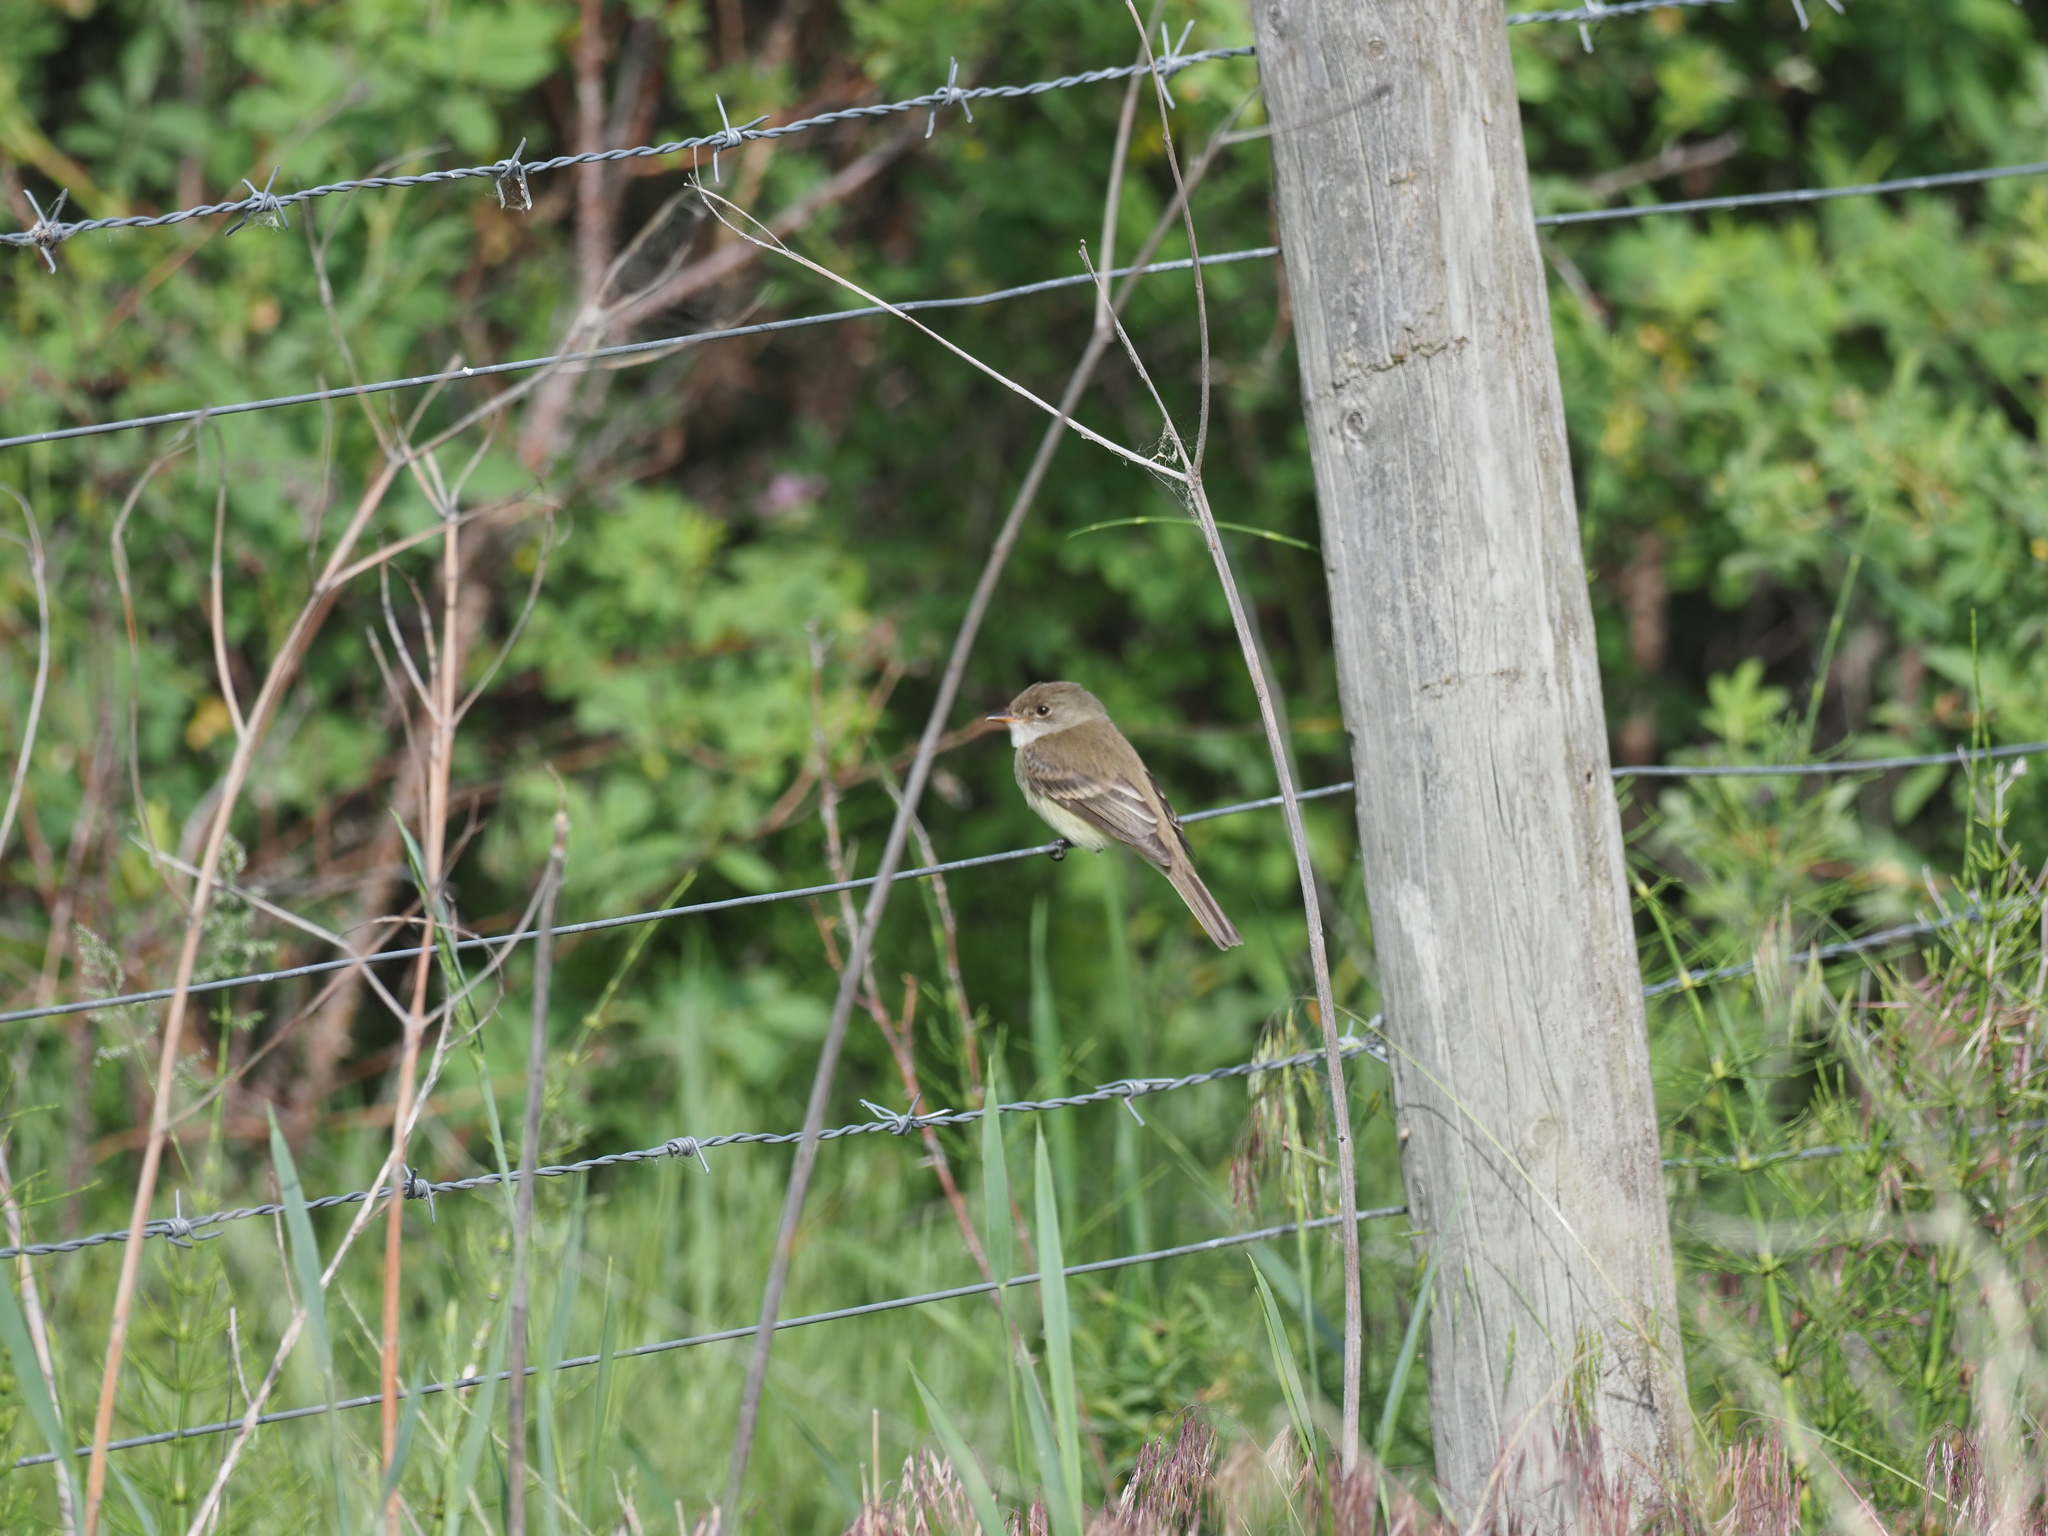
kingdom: Animalia
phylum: Chordata
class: Aves
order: Passeriformes
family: Tyrannidae
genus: Empidonax
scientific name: Empidonax traillii
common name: Willow flycatcher
